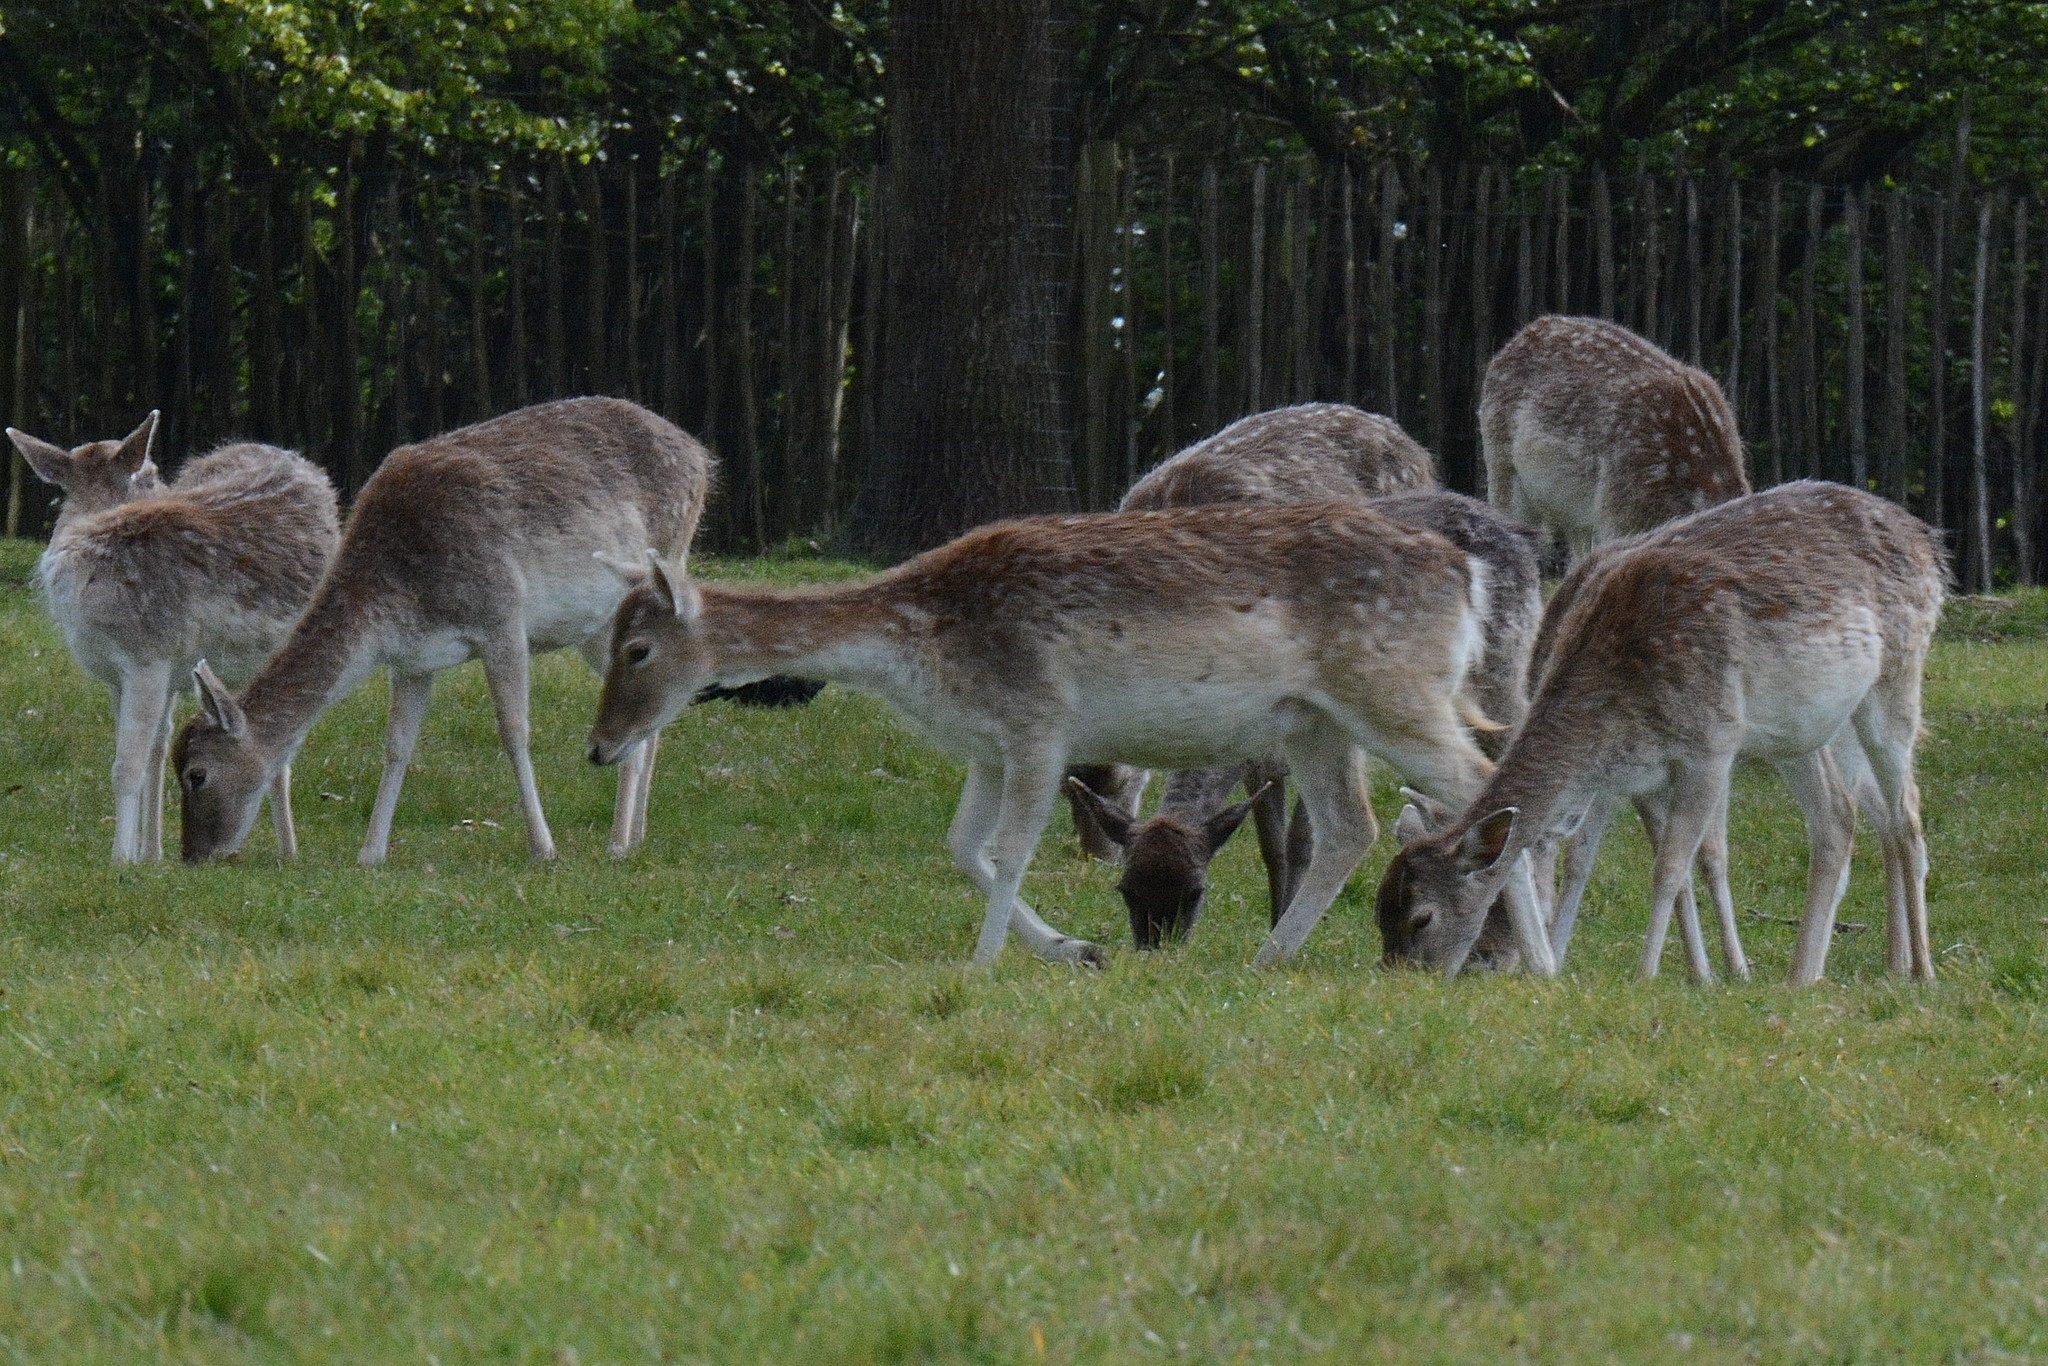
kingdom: Animalia
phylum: Chordata
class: Mammalia
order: Artiodactyla
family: Cervidae
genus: Dama
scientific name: Dama dama
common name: Fallow deer
